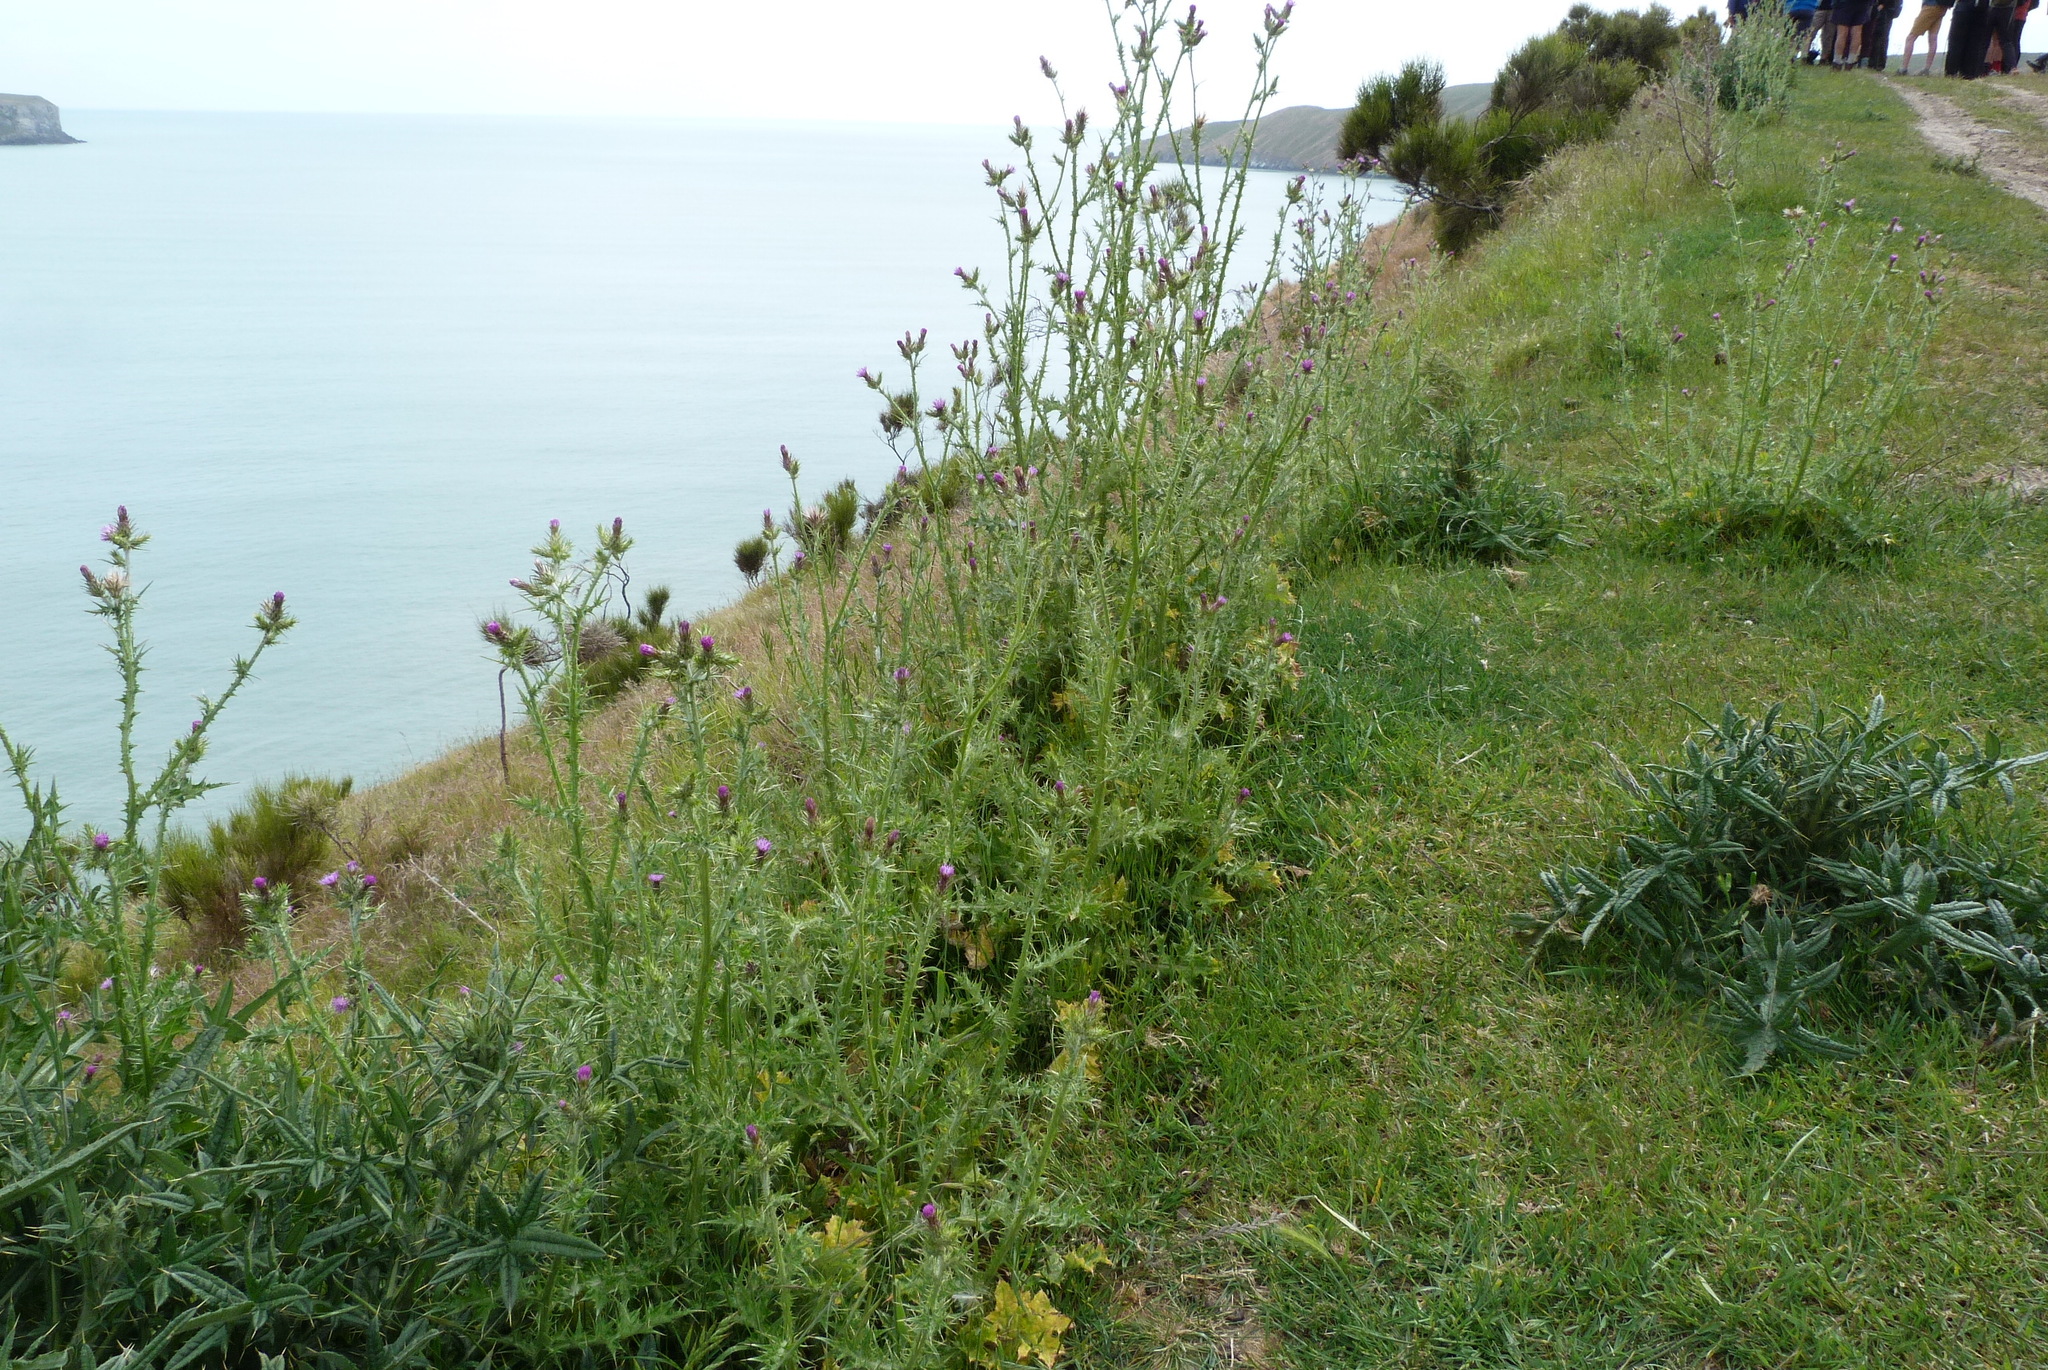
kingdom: Plantae
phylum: Tracheophyta
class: Magnoliopsida
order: Asterales
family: Asteraceae
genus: Carduus
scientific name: Carduus tenuiflorus
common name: Slender thistle
